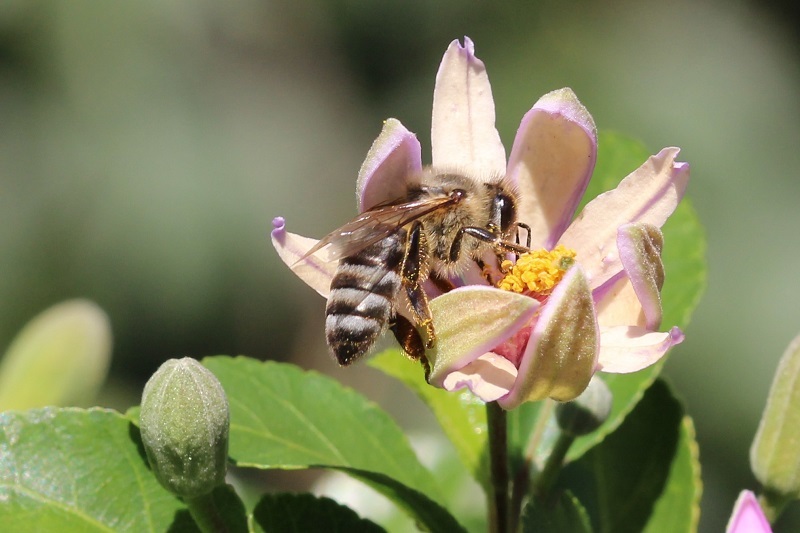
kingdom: Animalia
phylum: Arthropoda
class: Insecta
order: Hymenoptera
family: Apidae
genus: Apis
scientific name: Apis mellifera
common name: Honey bee
